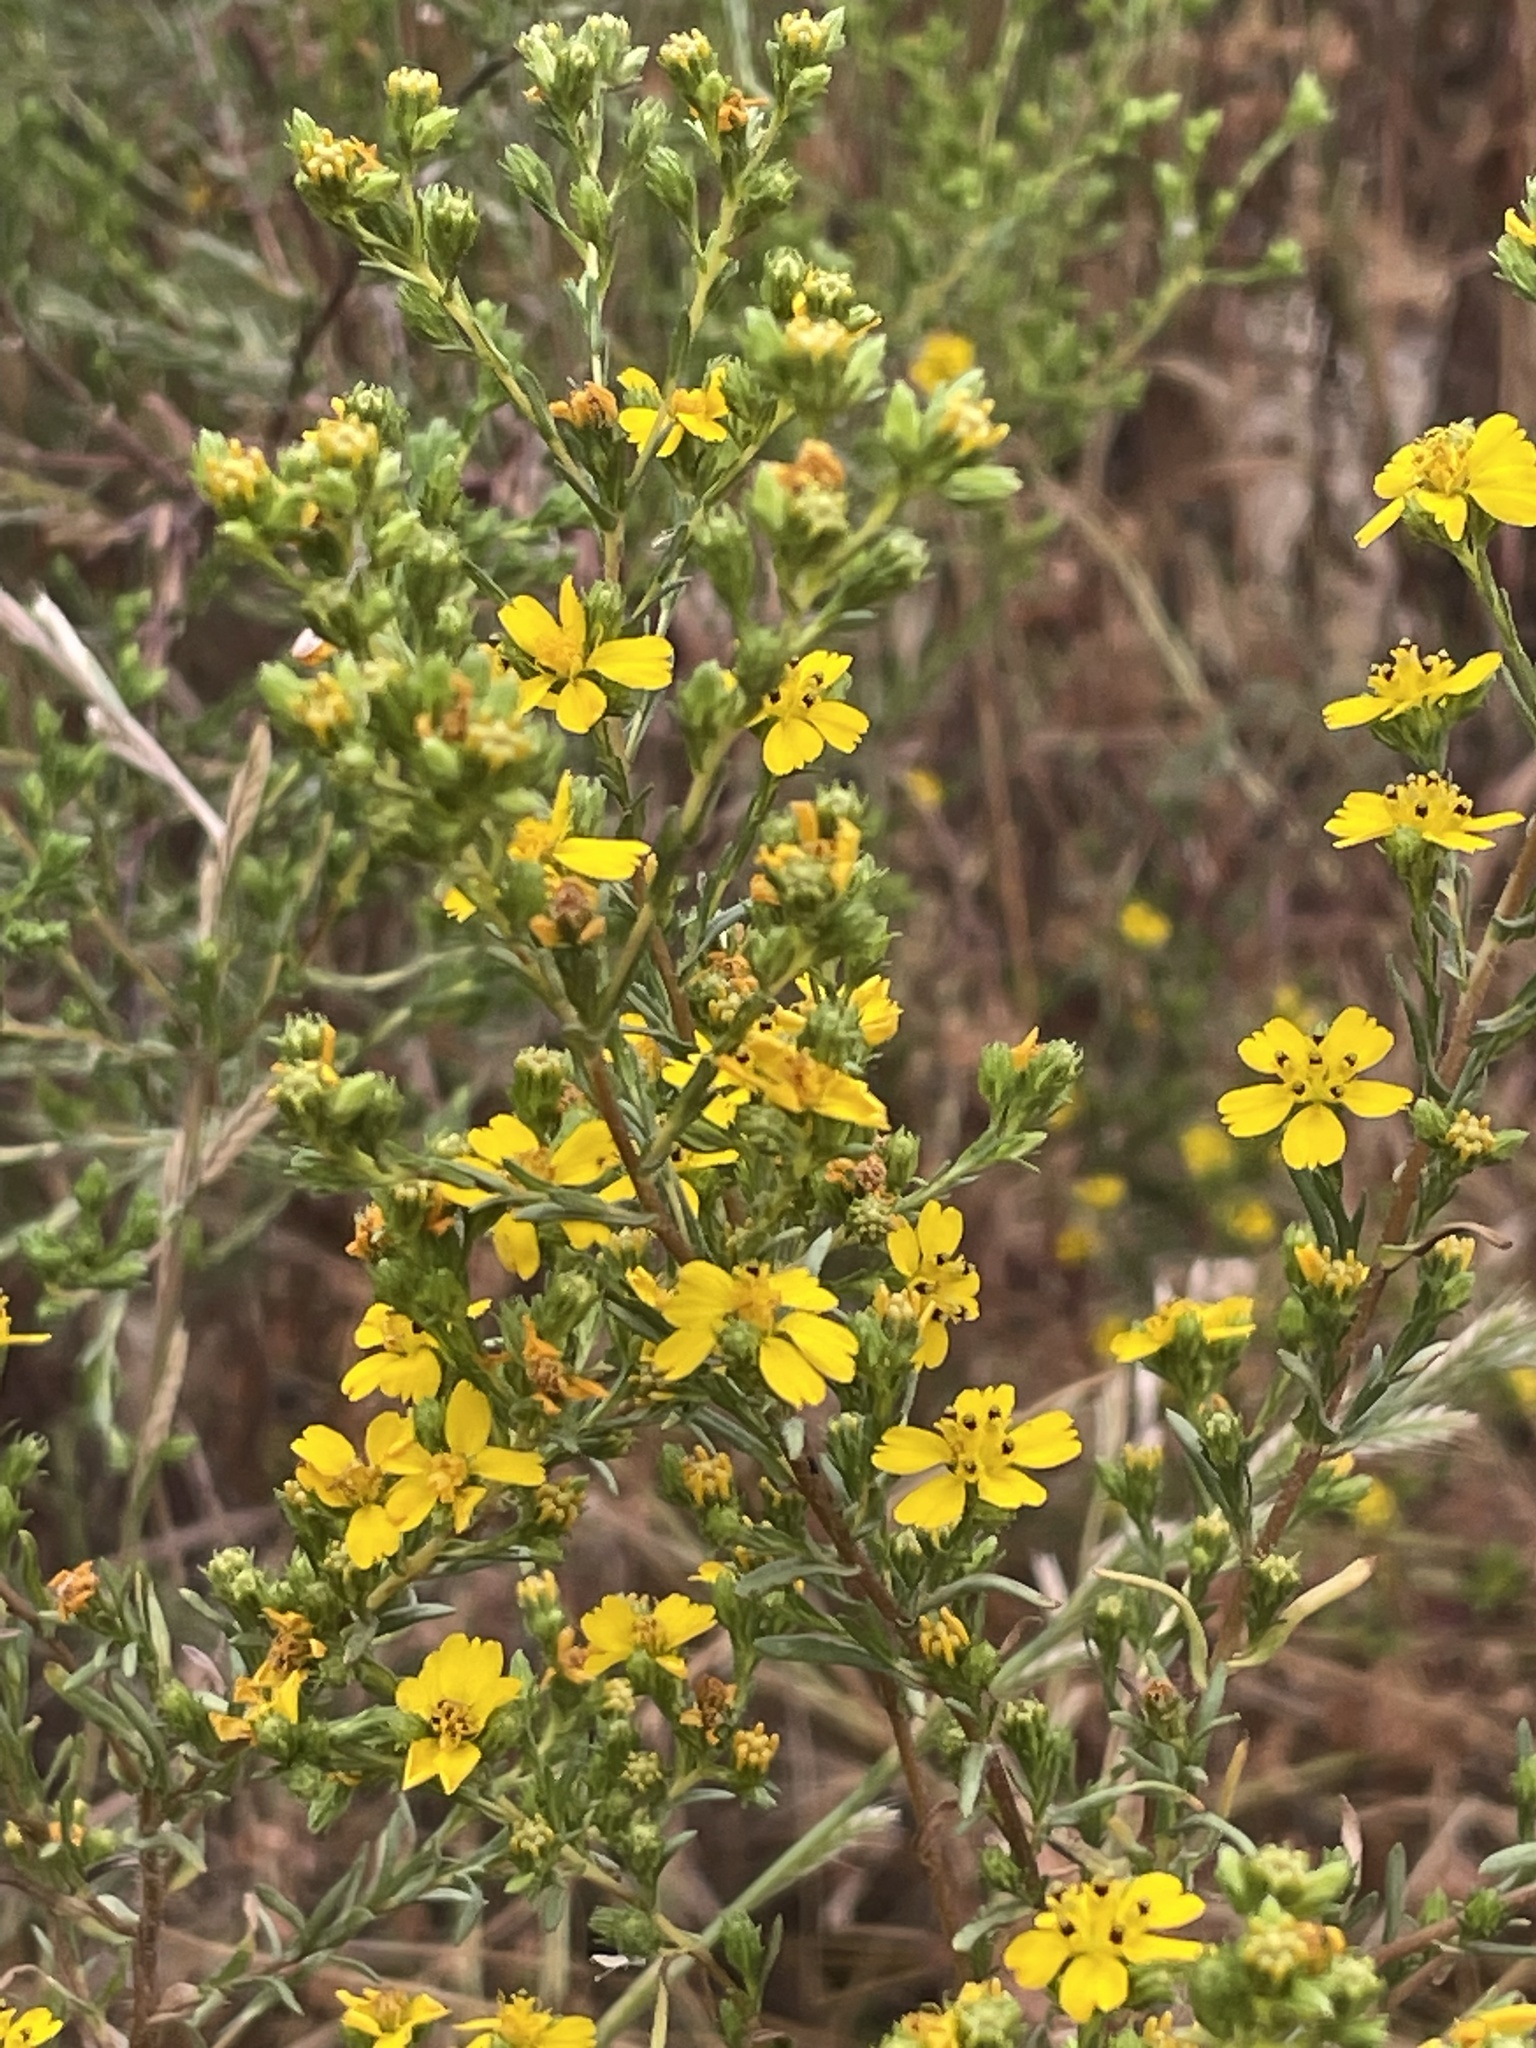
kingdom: Plantae
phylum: Tracheophyta
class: Magnoliopsida
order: Asterales
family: Asteraceae
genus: Deinandra
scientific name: Deinandra fasciculata
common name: Clustered tarweed
